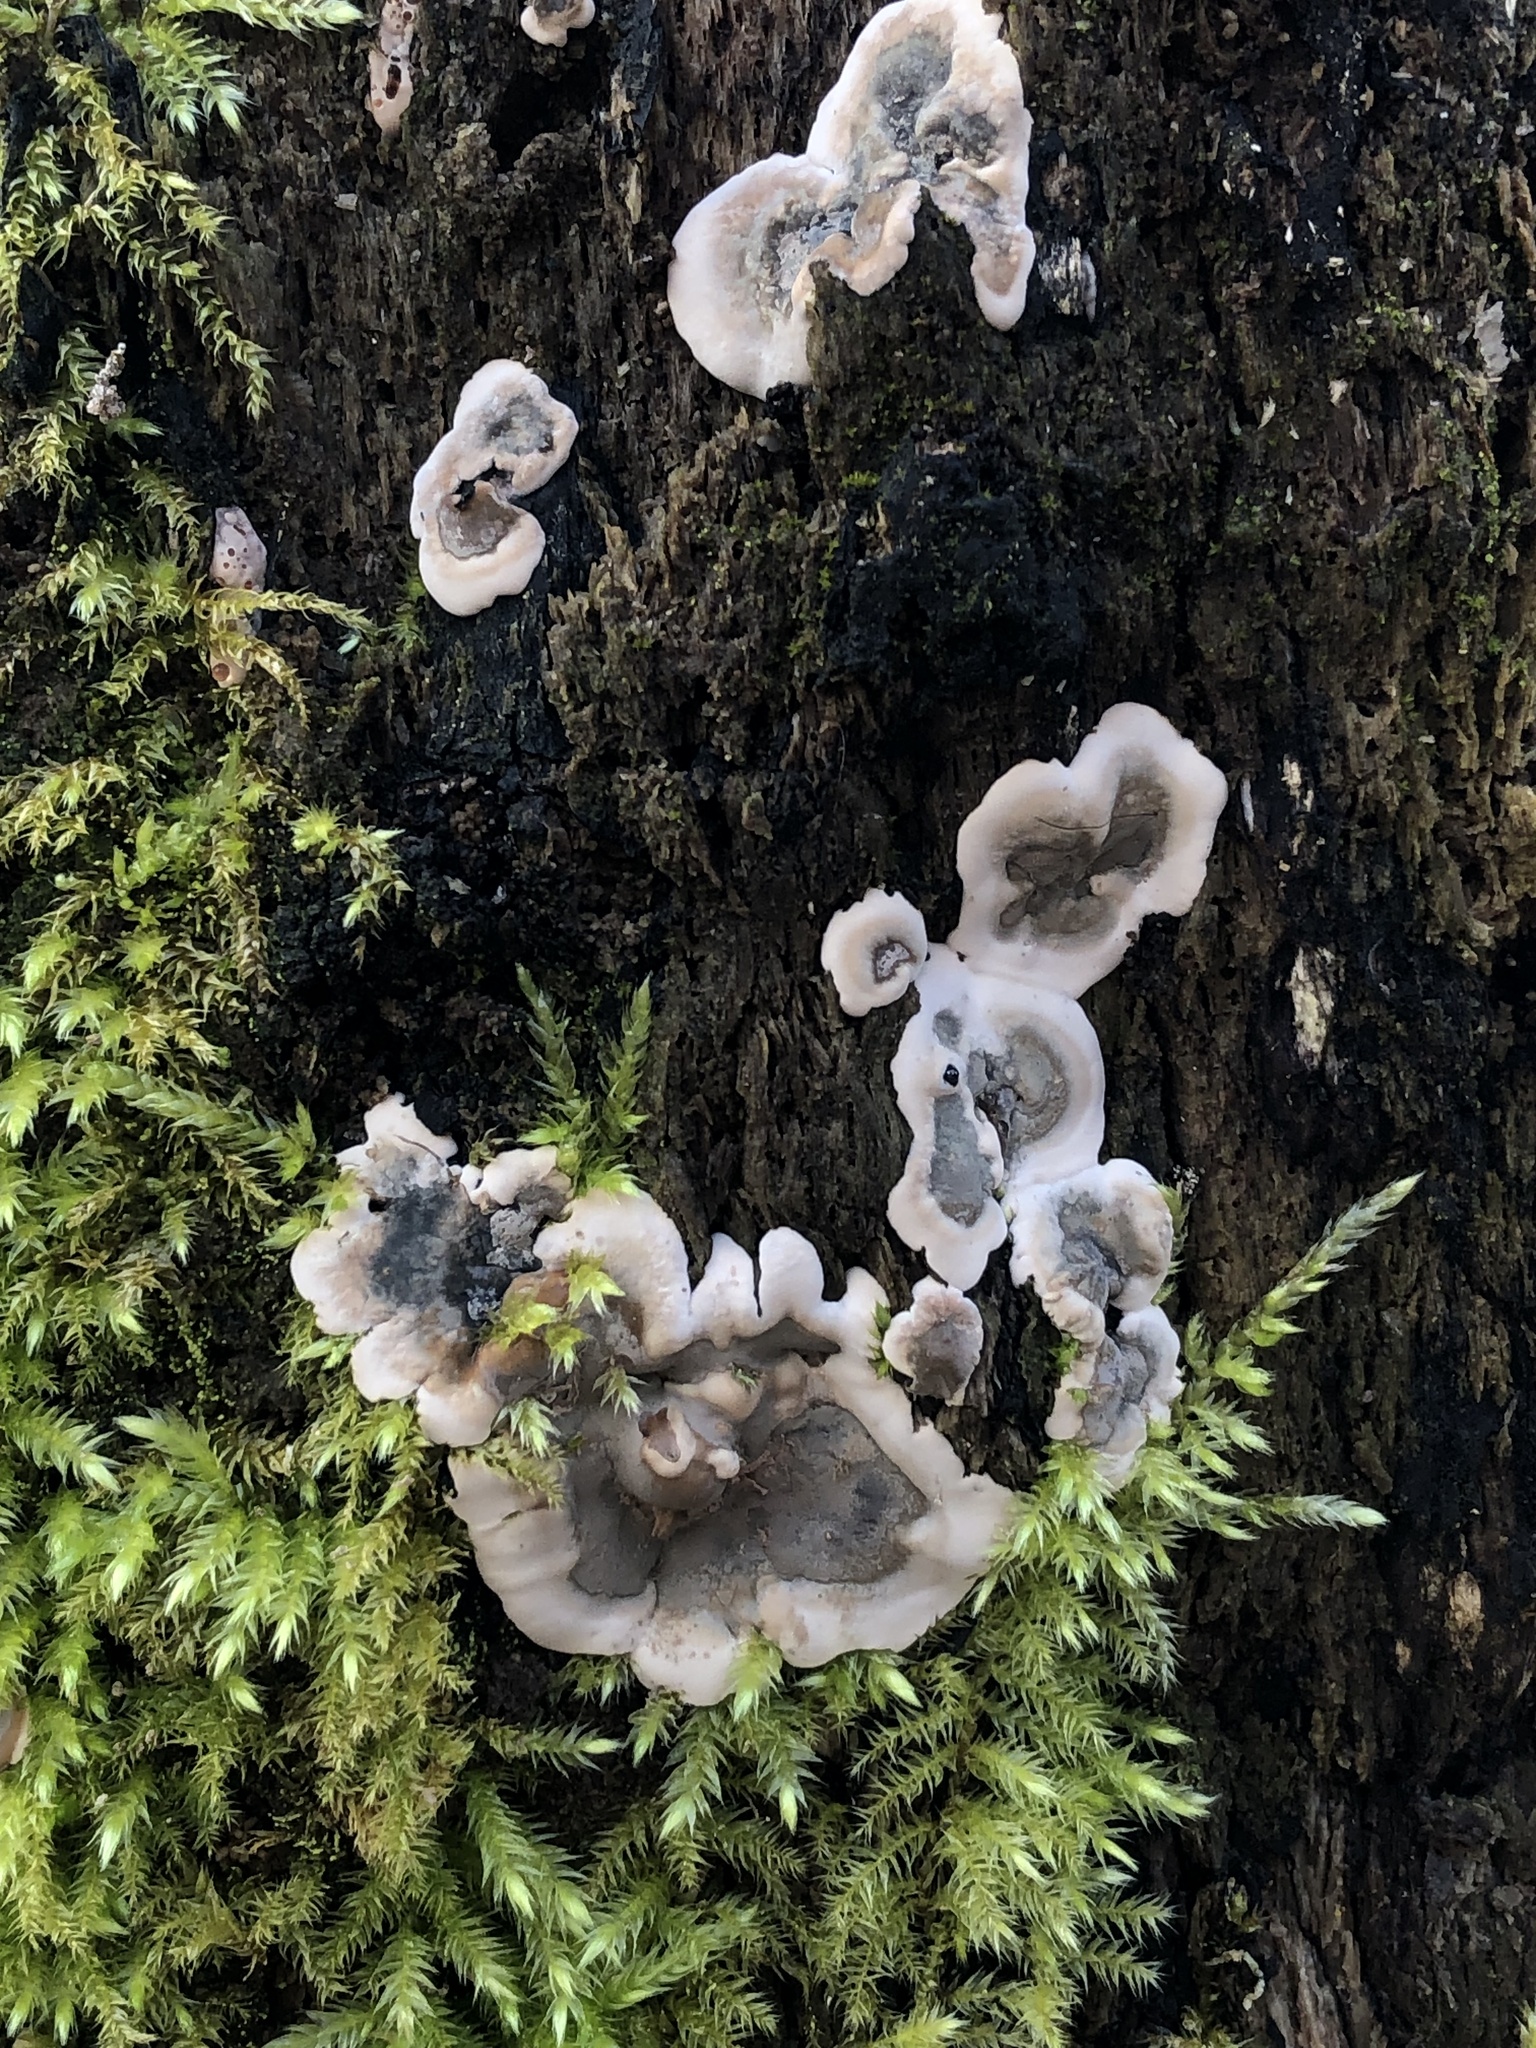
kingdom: Fungi
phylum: Ascomycota
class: Sordariomycetes
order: Xylariales
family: Xylariaceae
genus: Kretzschmaria
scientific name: Kretzschmaria deusta
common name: Brittle cinder
